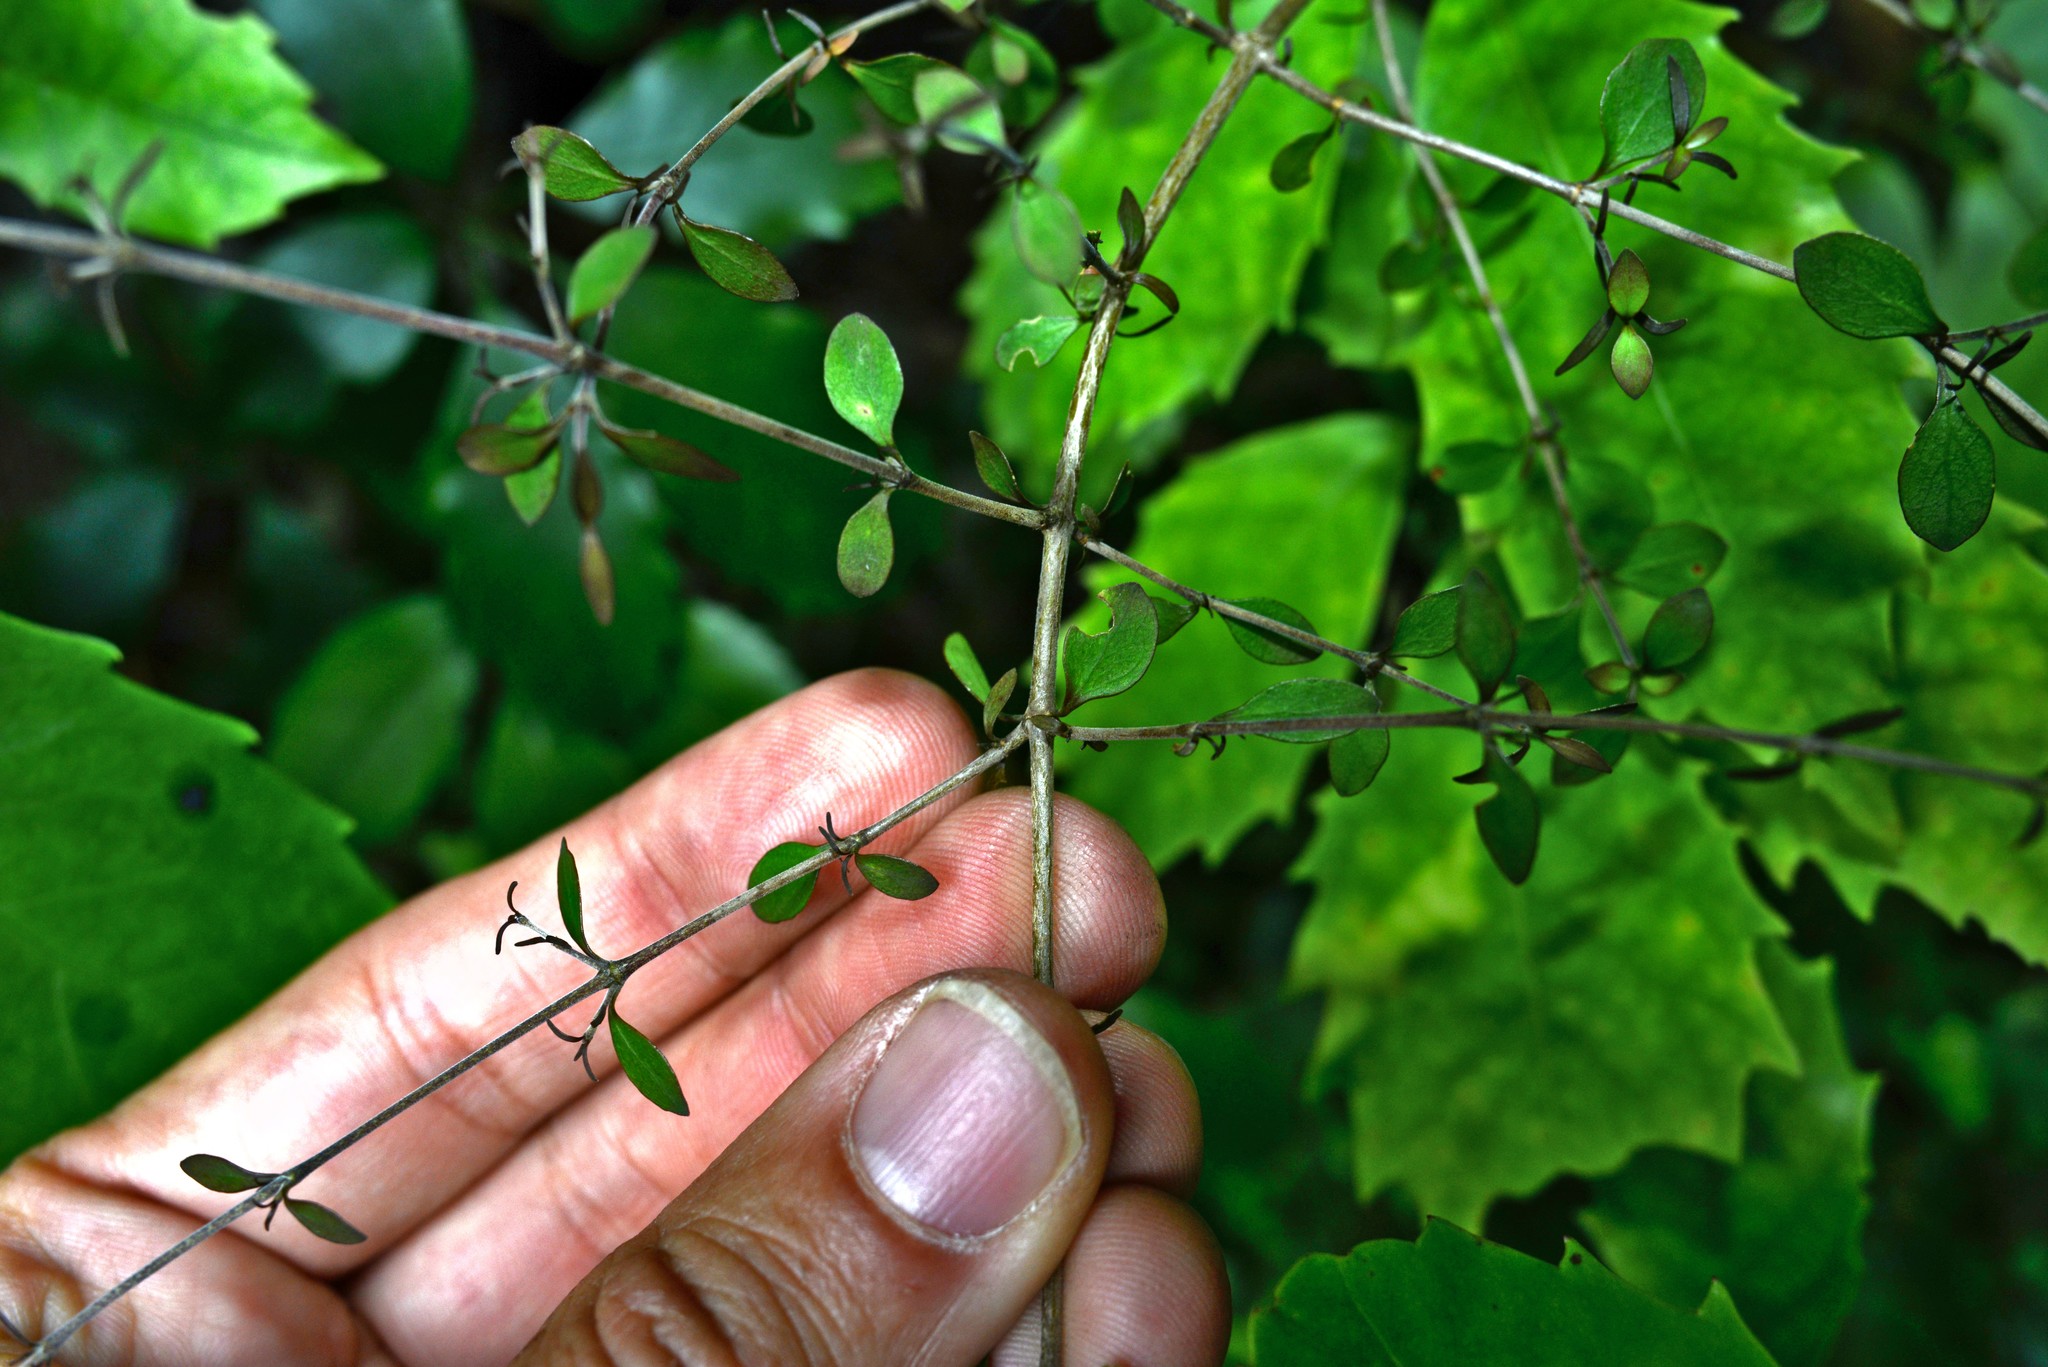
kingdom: Plantae
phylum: Tracheophyta
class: Magnoliopsida
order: Gentianales
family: Rubiaceae
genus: Coprosma
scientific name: Coprosma rhamnoides
